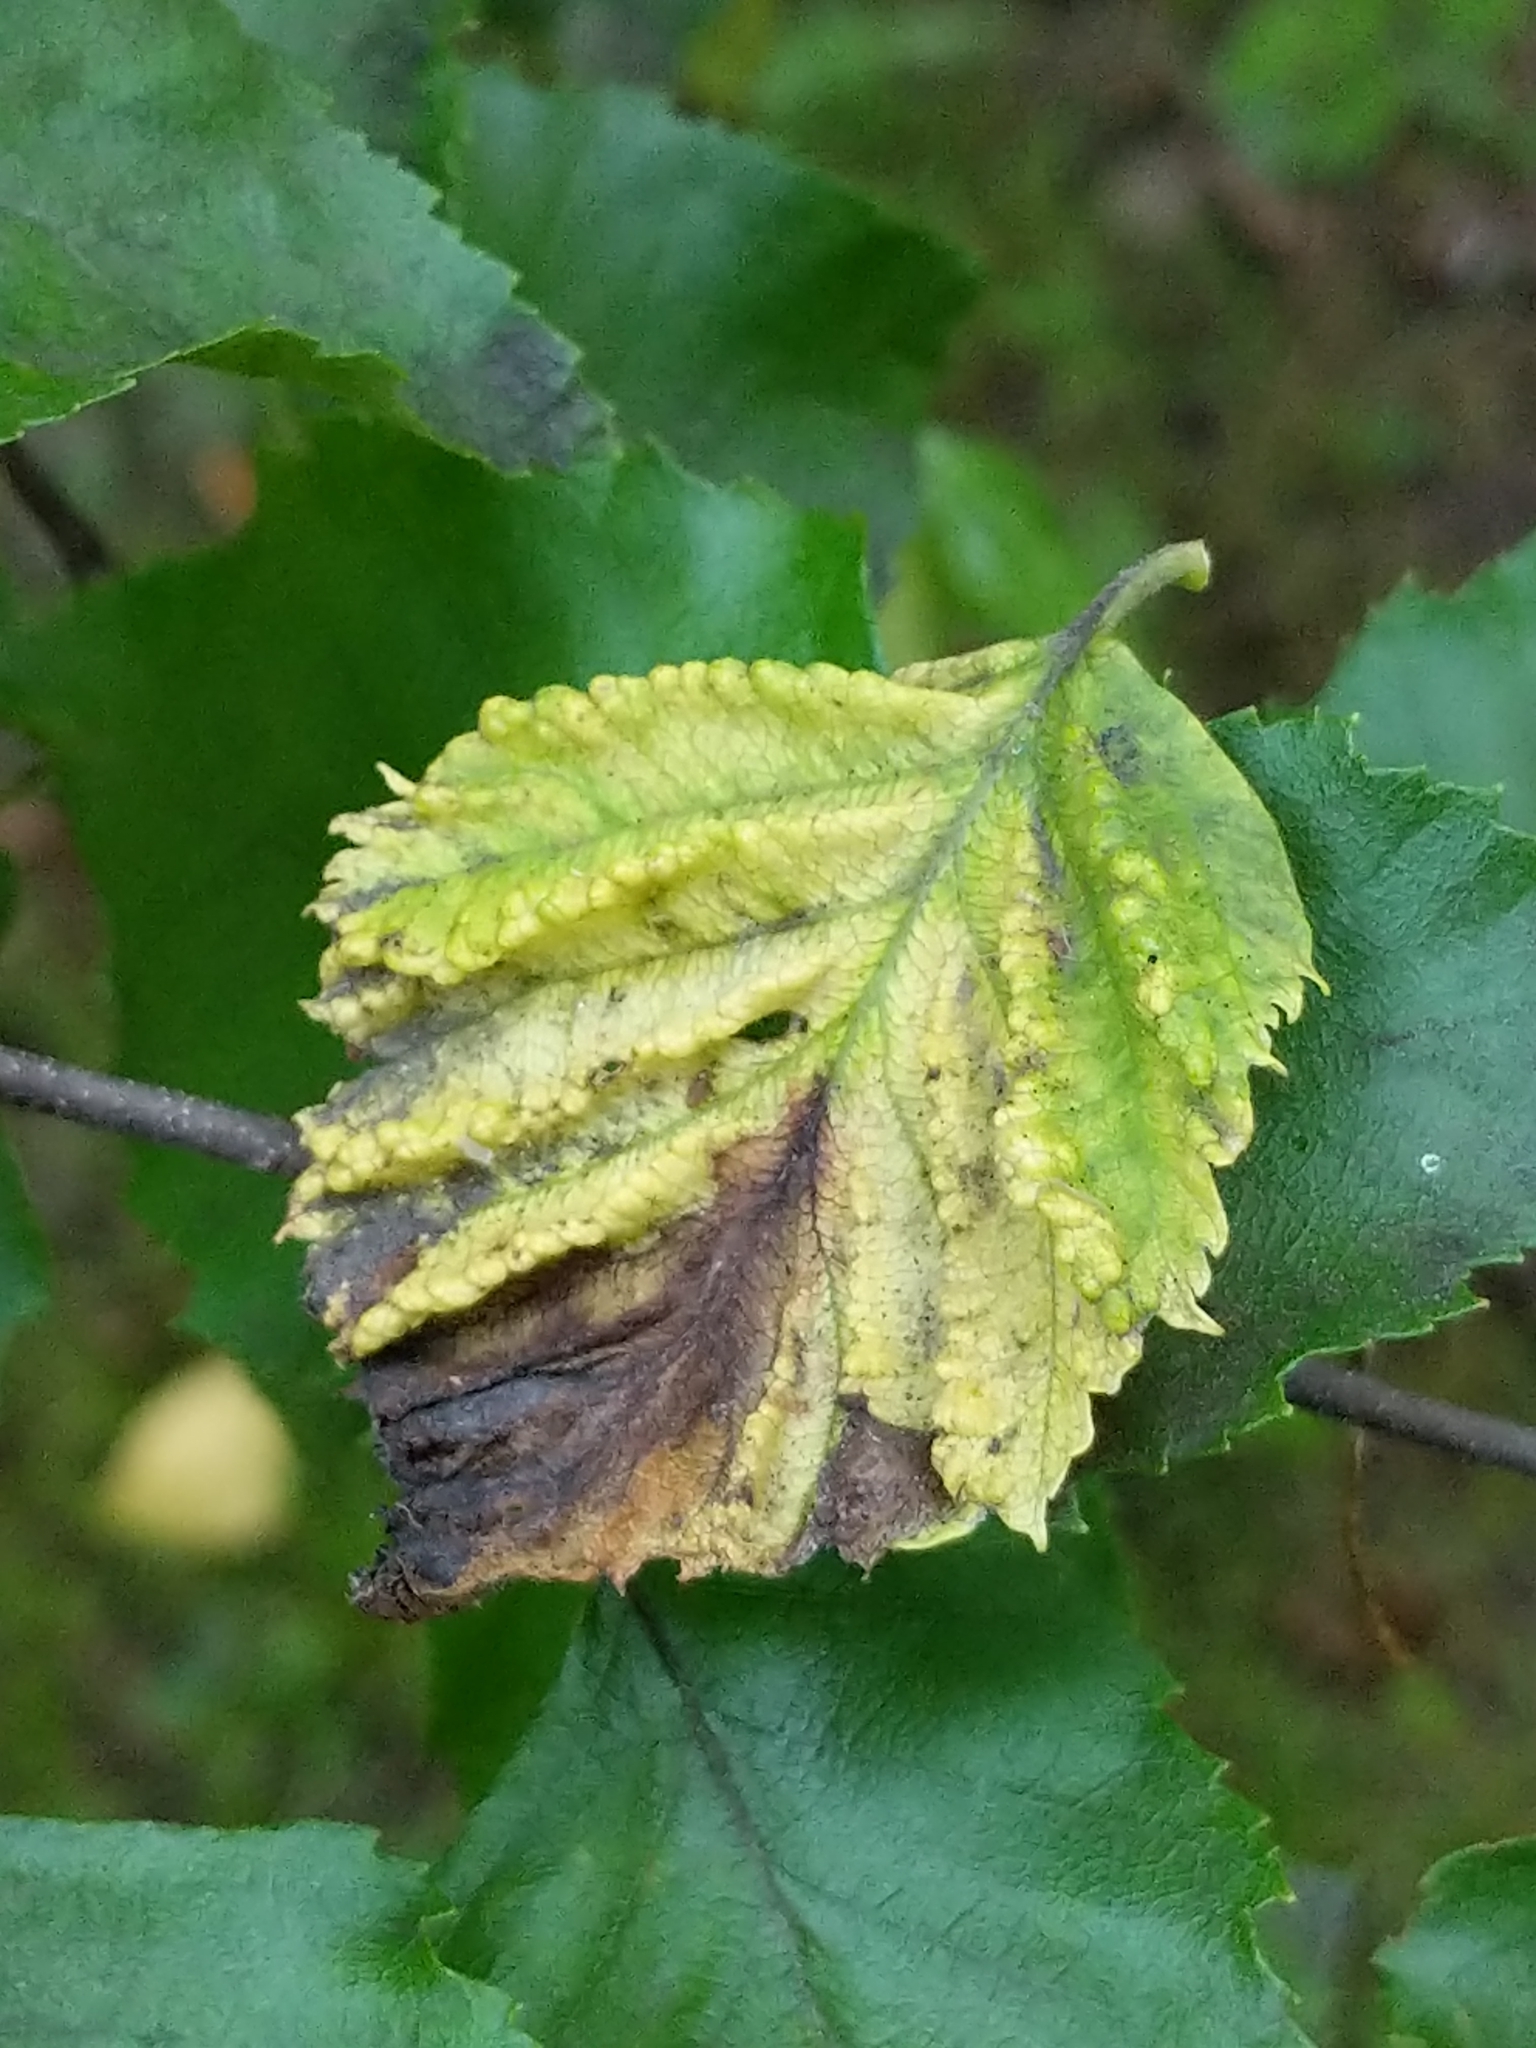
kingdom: Animalia
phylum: Arthropoda
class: Insecta
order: Hemiptera
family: Aphididae
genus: Hamamelistes
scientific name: Hamamelistes spinosus
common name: Witch hazel gall aphid
